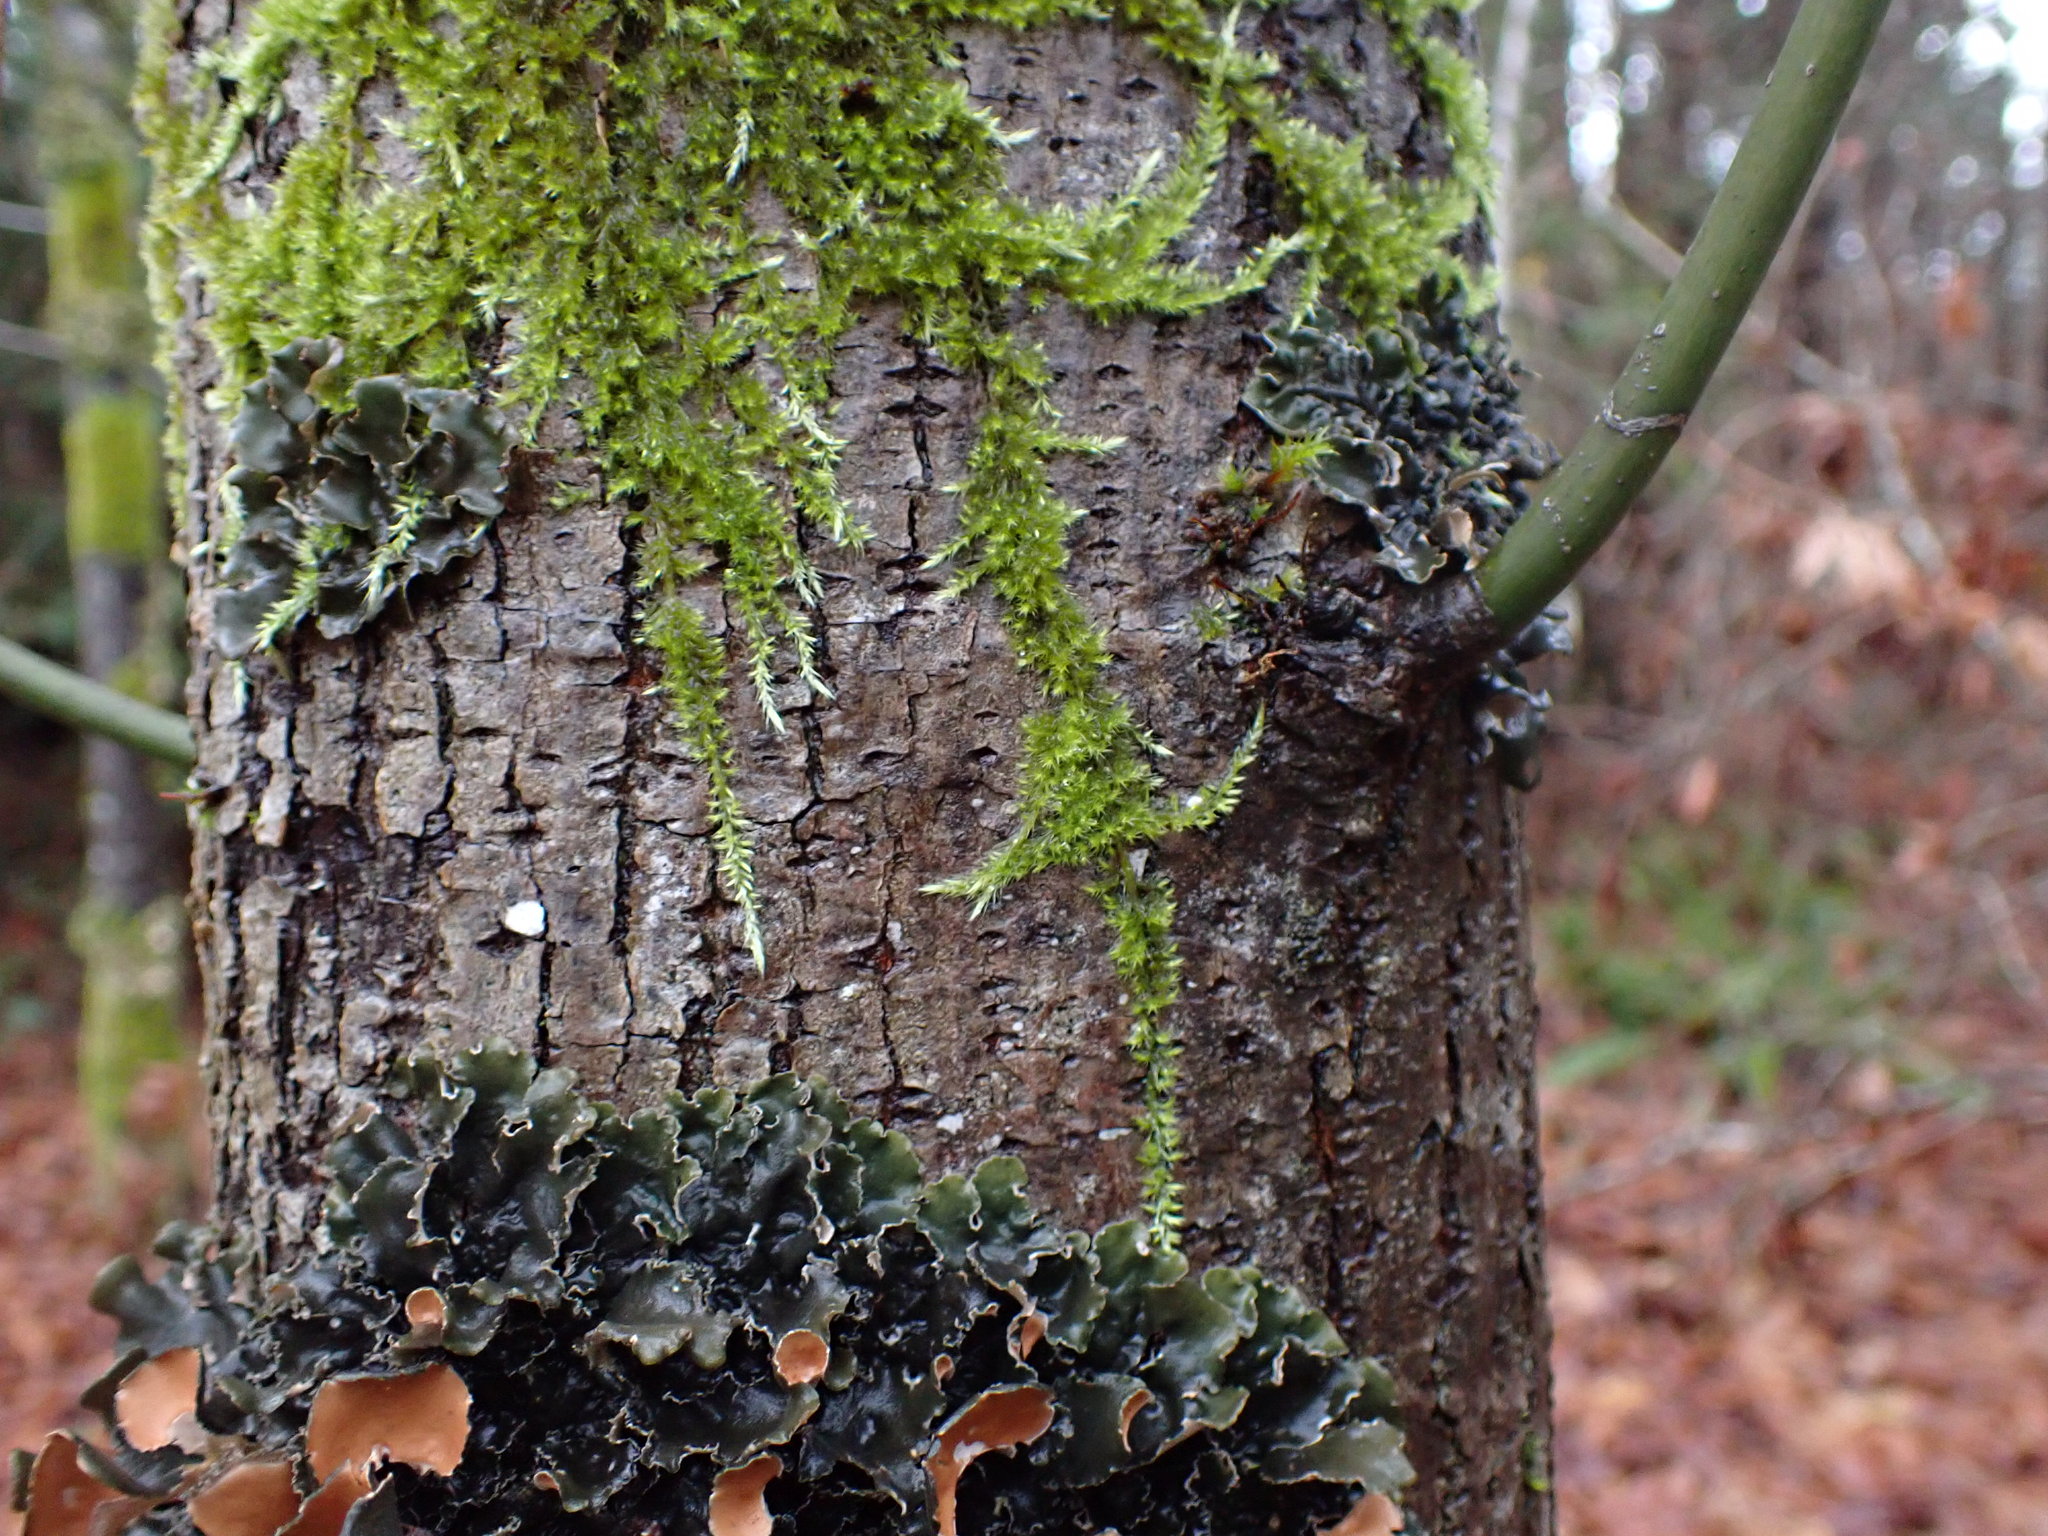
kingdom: Plantae
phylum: Bryophyta
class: Bryopsida
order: Hypnales
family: Brachytheciaceae
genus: Homalothecium
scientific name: Homalothecium nuttallii
